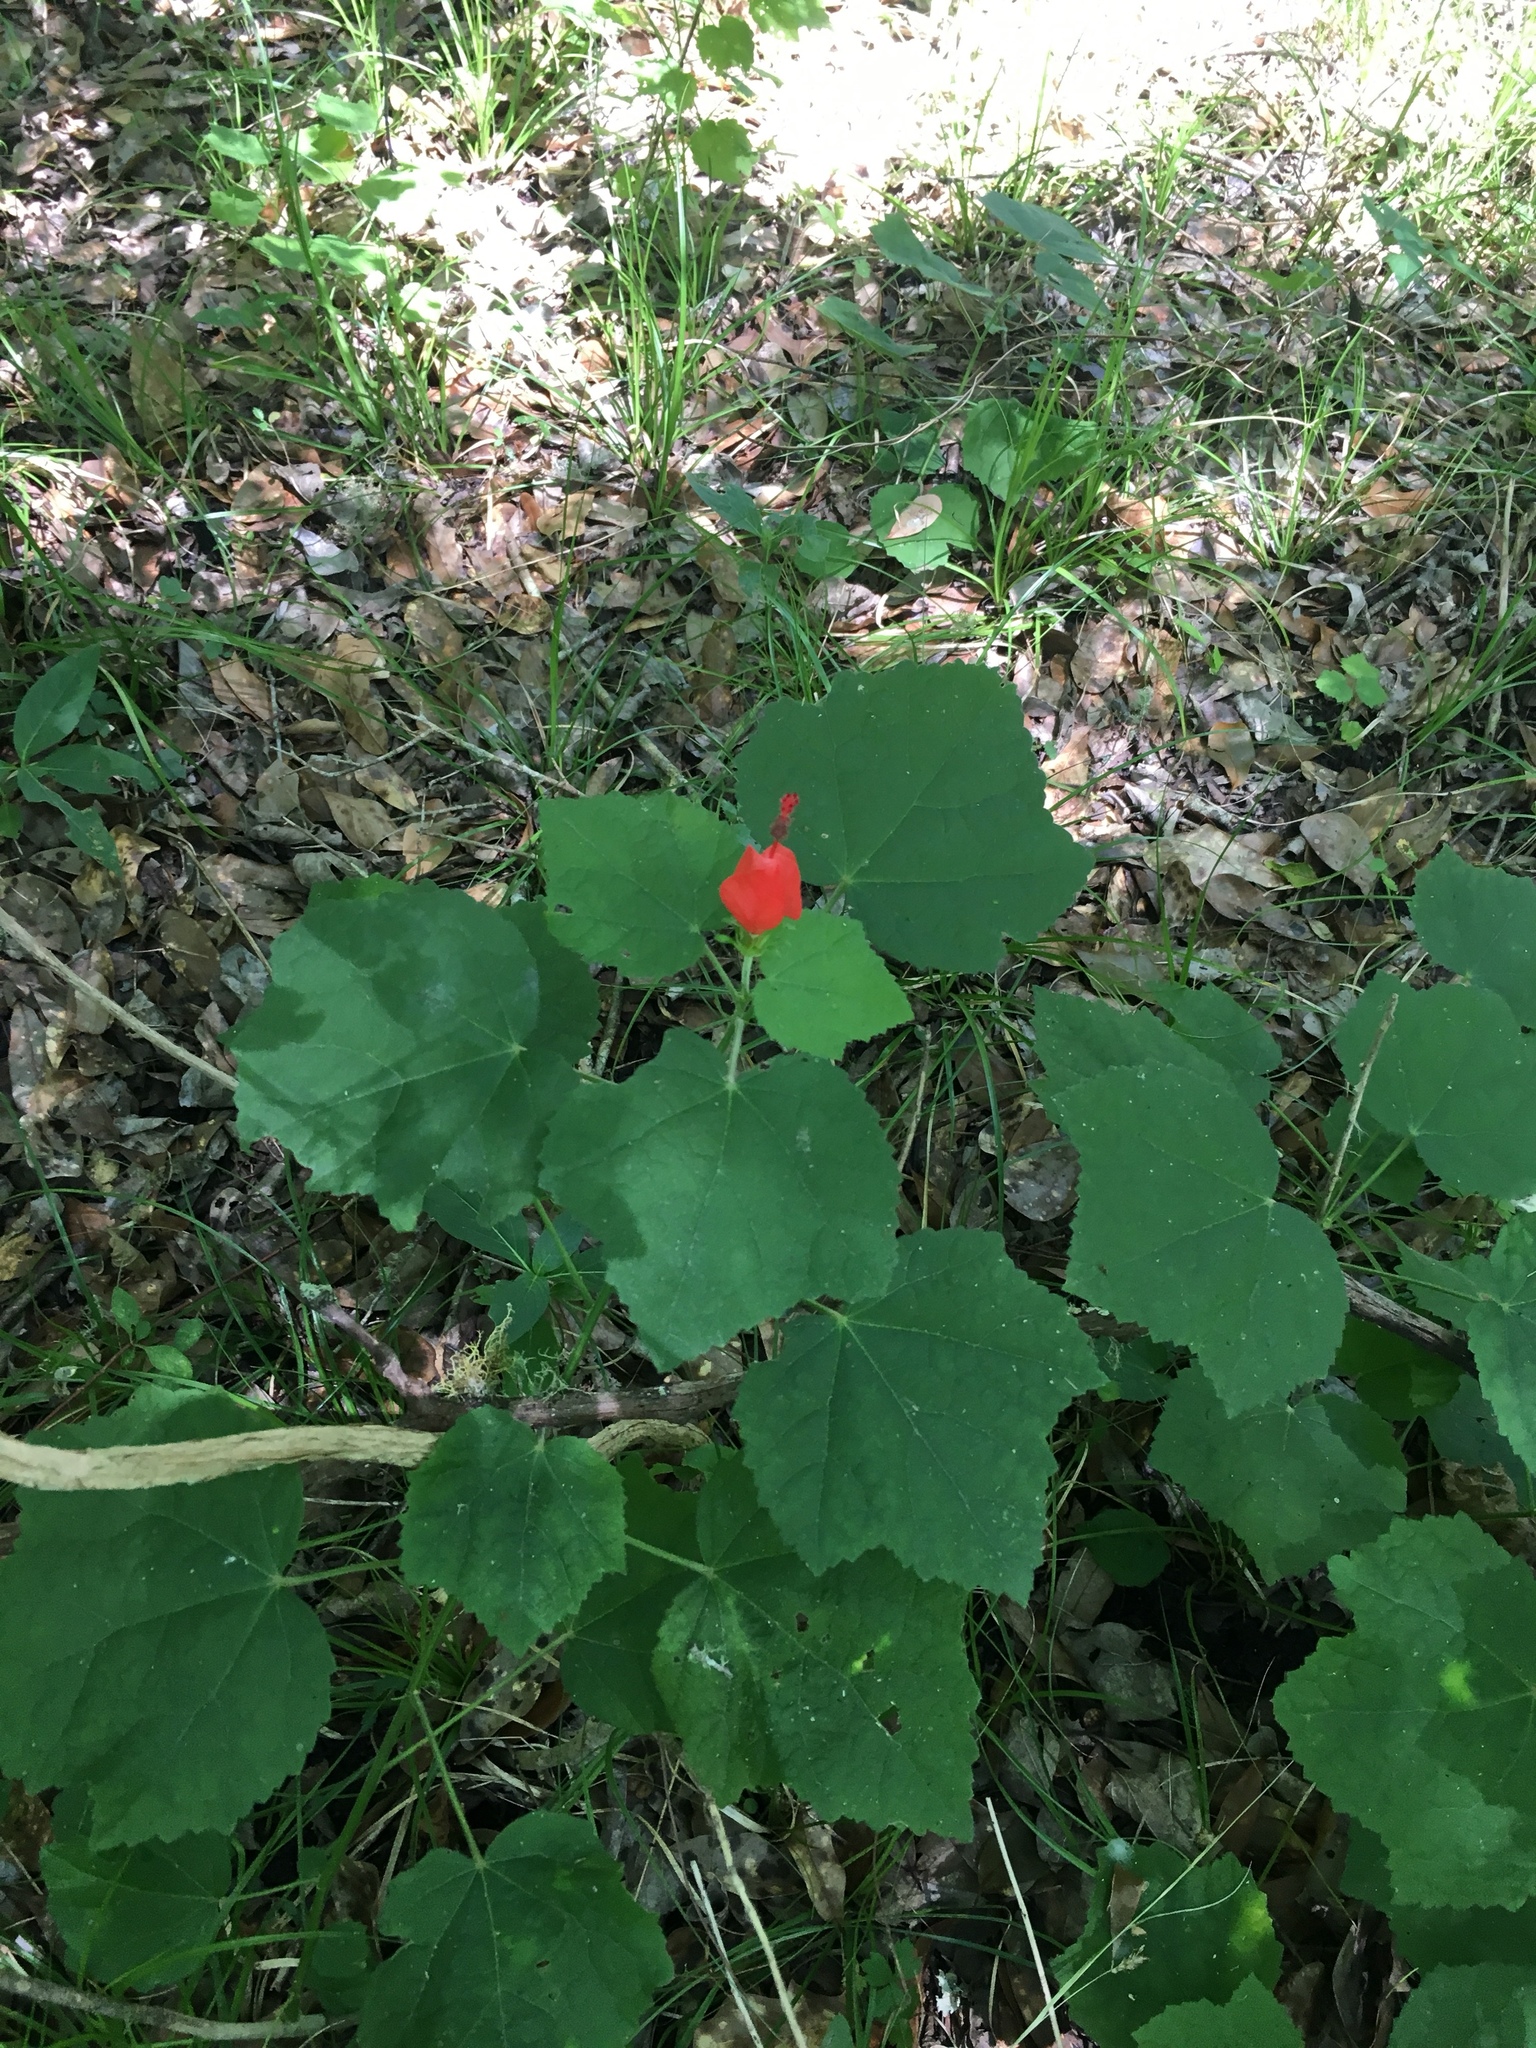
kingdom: Plantae
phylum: Tracheophyta
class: Magnoliopsida
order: Malvales
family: Malvaceae
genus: Malvaviscus
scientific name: Malvaviscus arboreus
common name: Wax mallow
